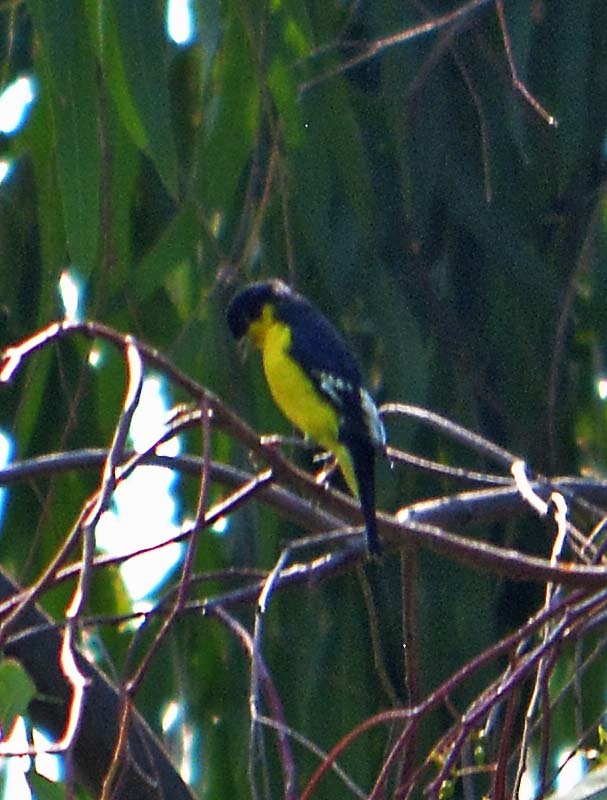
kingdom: Animalia
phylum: Chordata
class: Aves
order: Passeriformes
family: Fringillidae
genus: Spinus
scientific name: Spinus psaltria
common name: Lesser goldfinch
